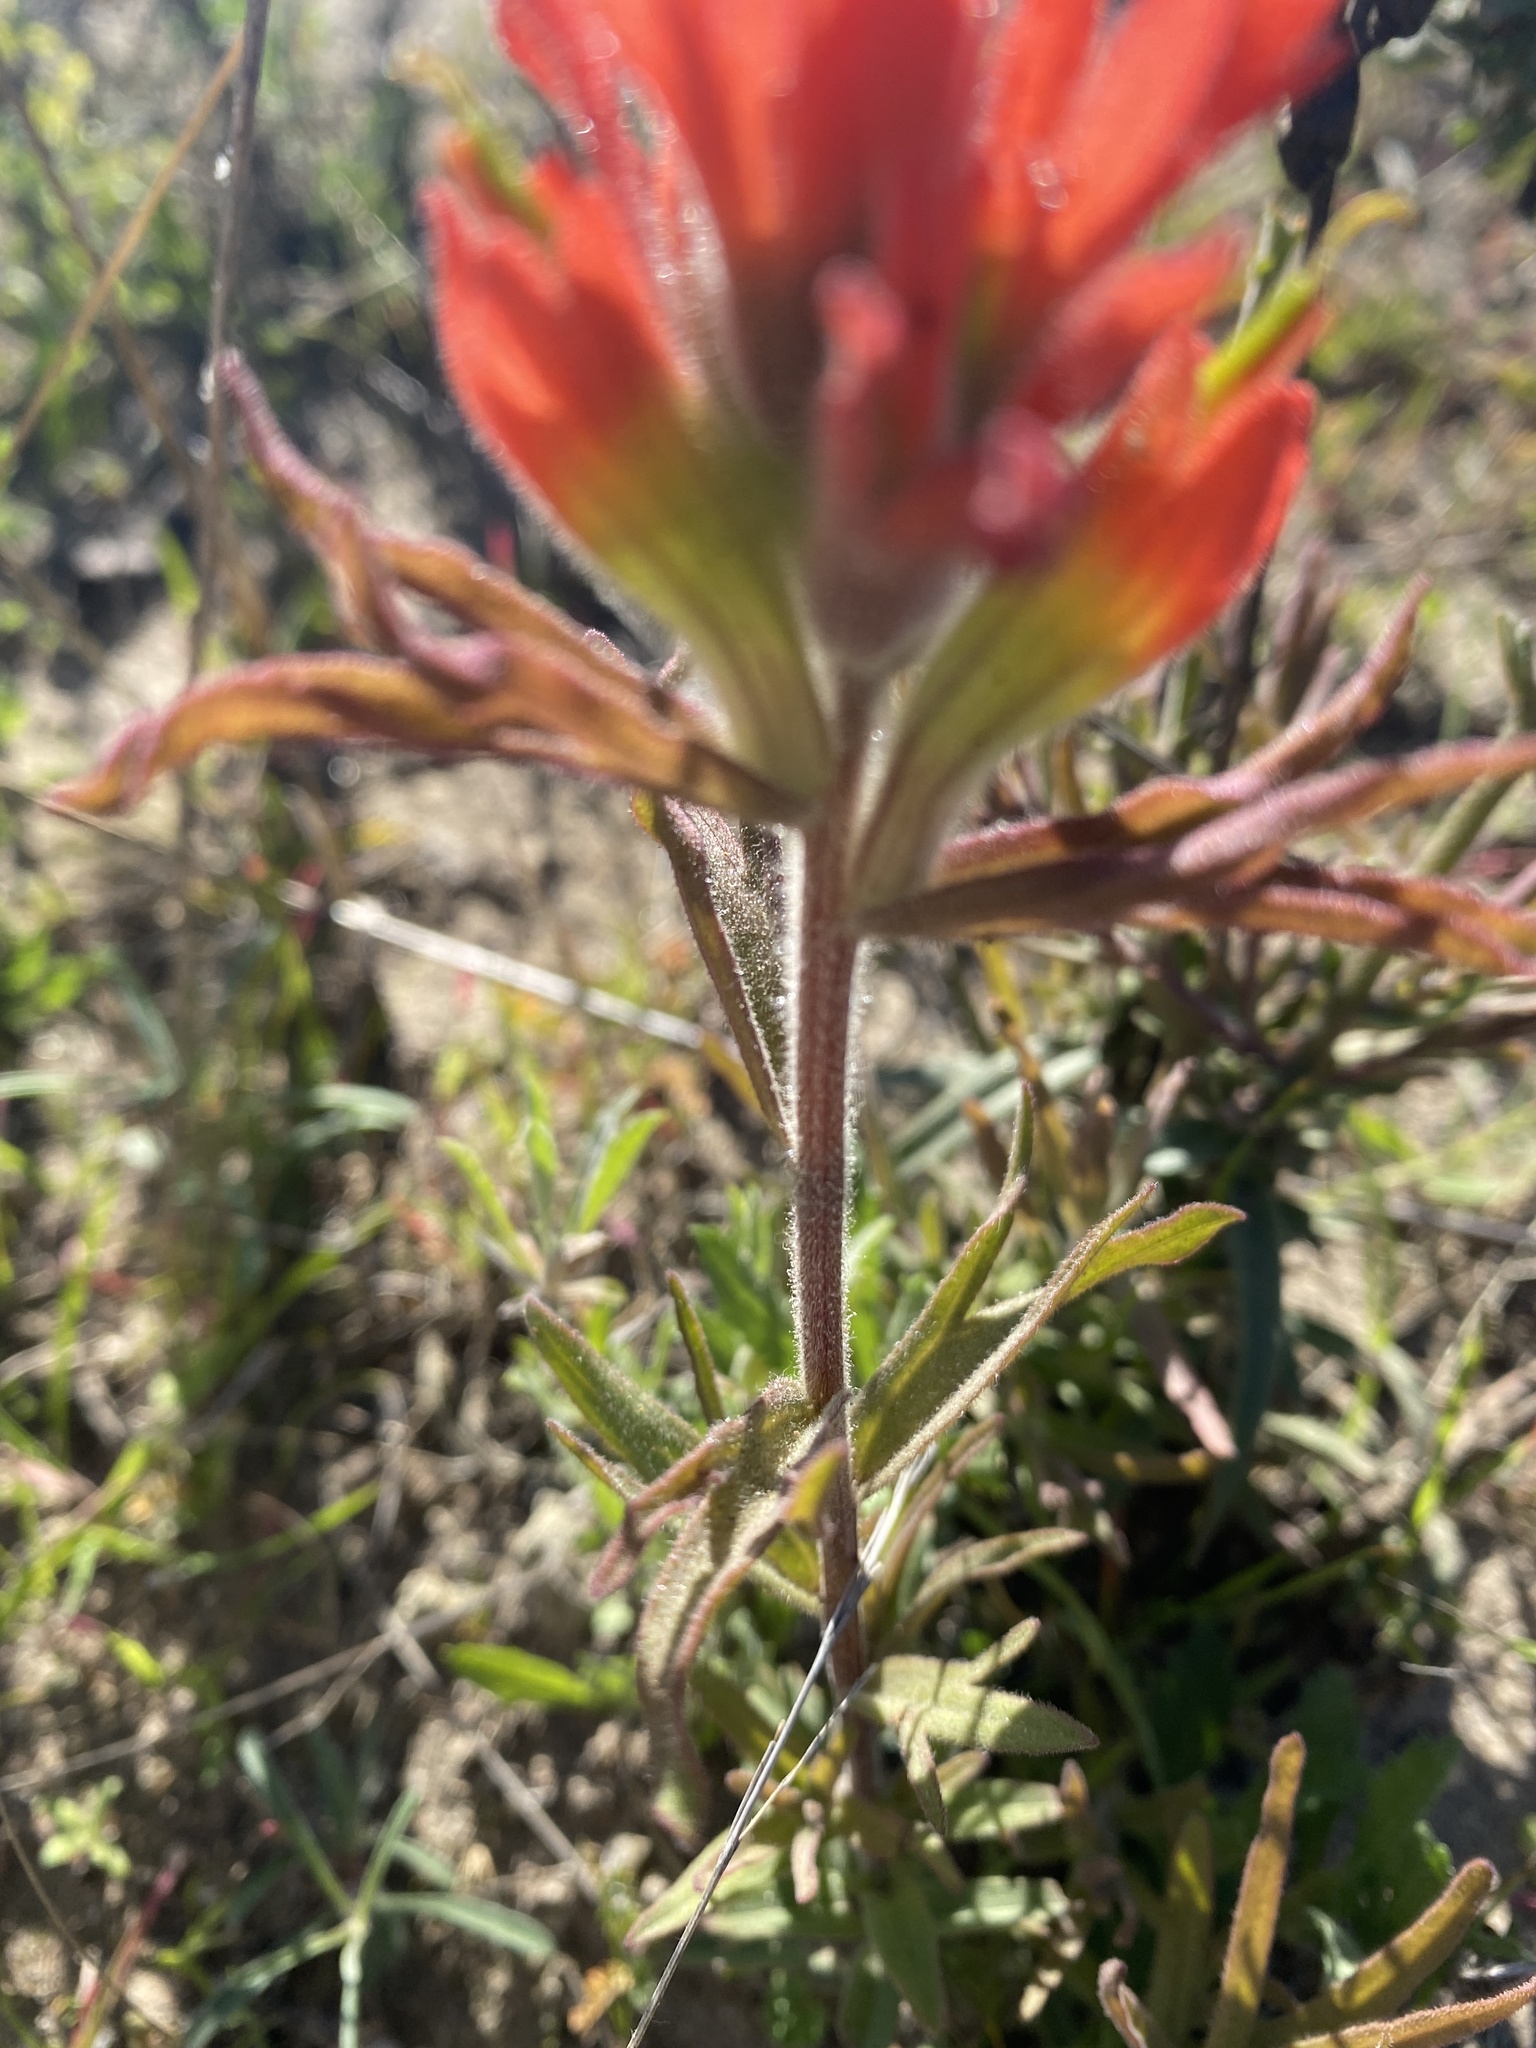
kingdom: Plantae
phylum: Tracheophyta
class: Magnoliopsida
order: Lamiales
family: Orobanchaceae
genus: Castilleja
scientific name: Castilleja affinis
